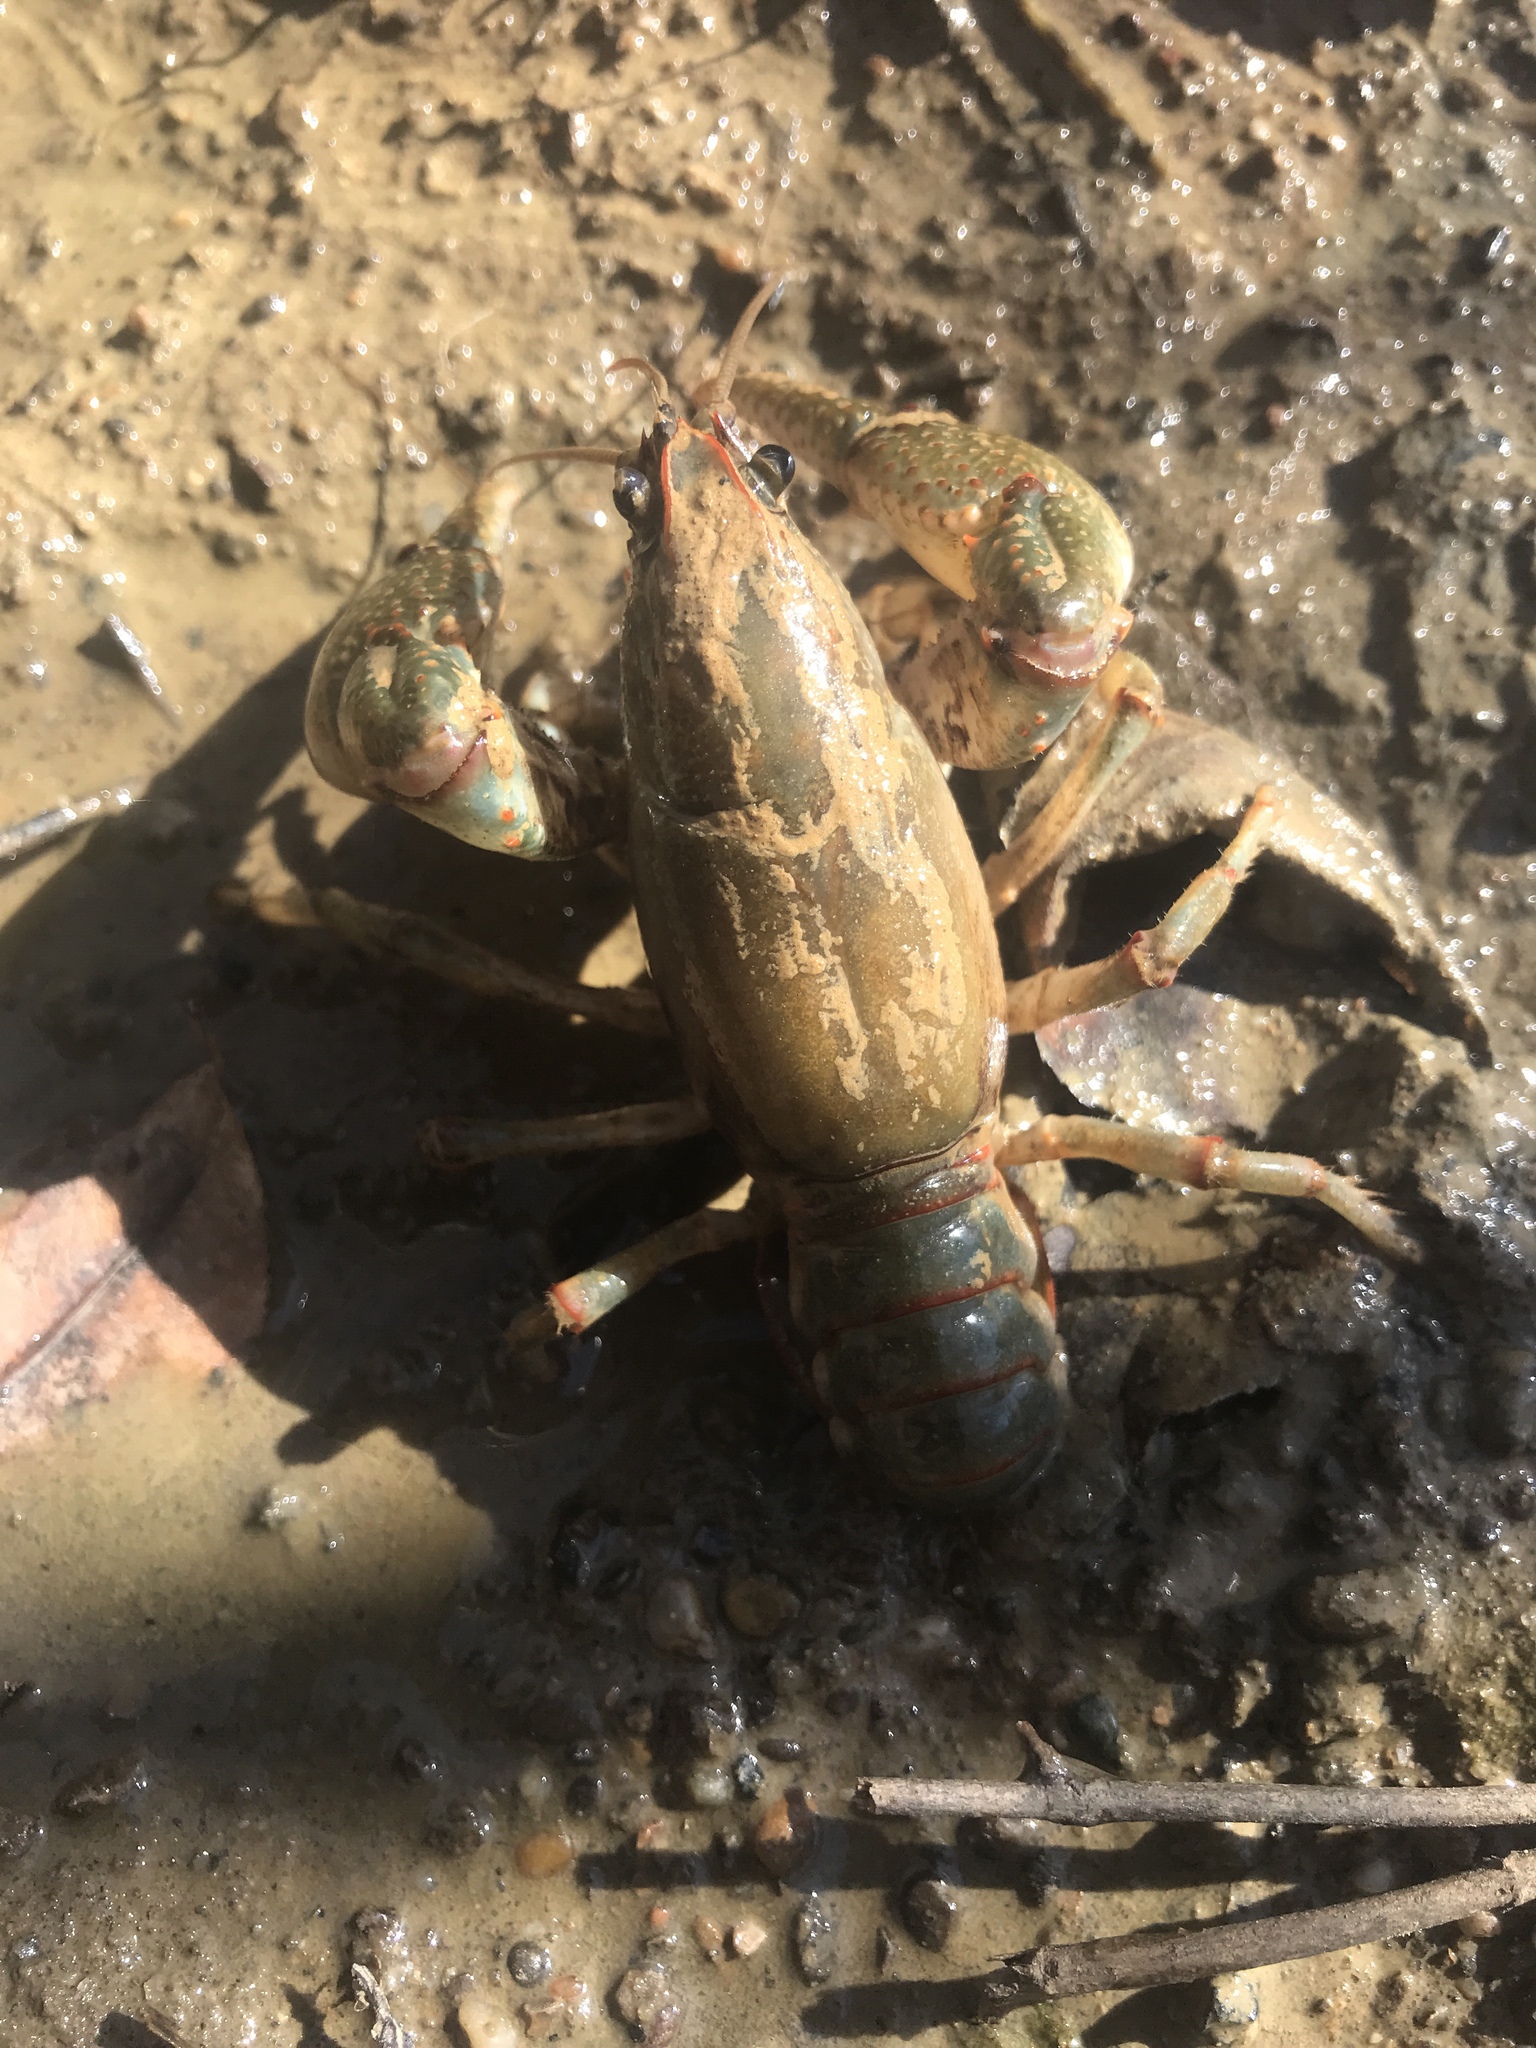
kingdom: Animalia
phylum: Arthropoda
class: Malacostraca
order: Decapoda
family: Cambaridae
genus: Lacunicambarus
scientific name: Lacunicambarus polychromatus
